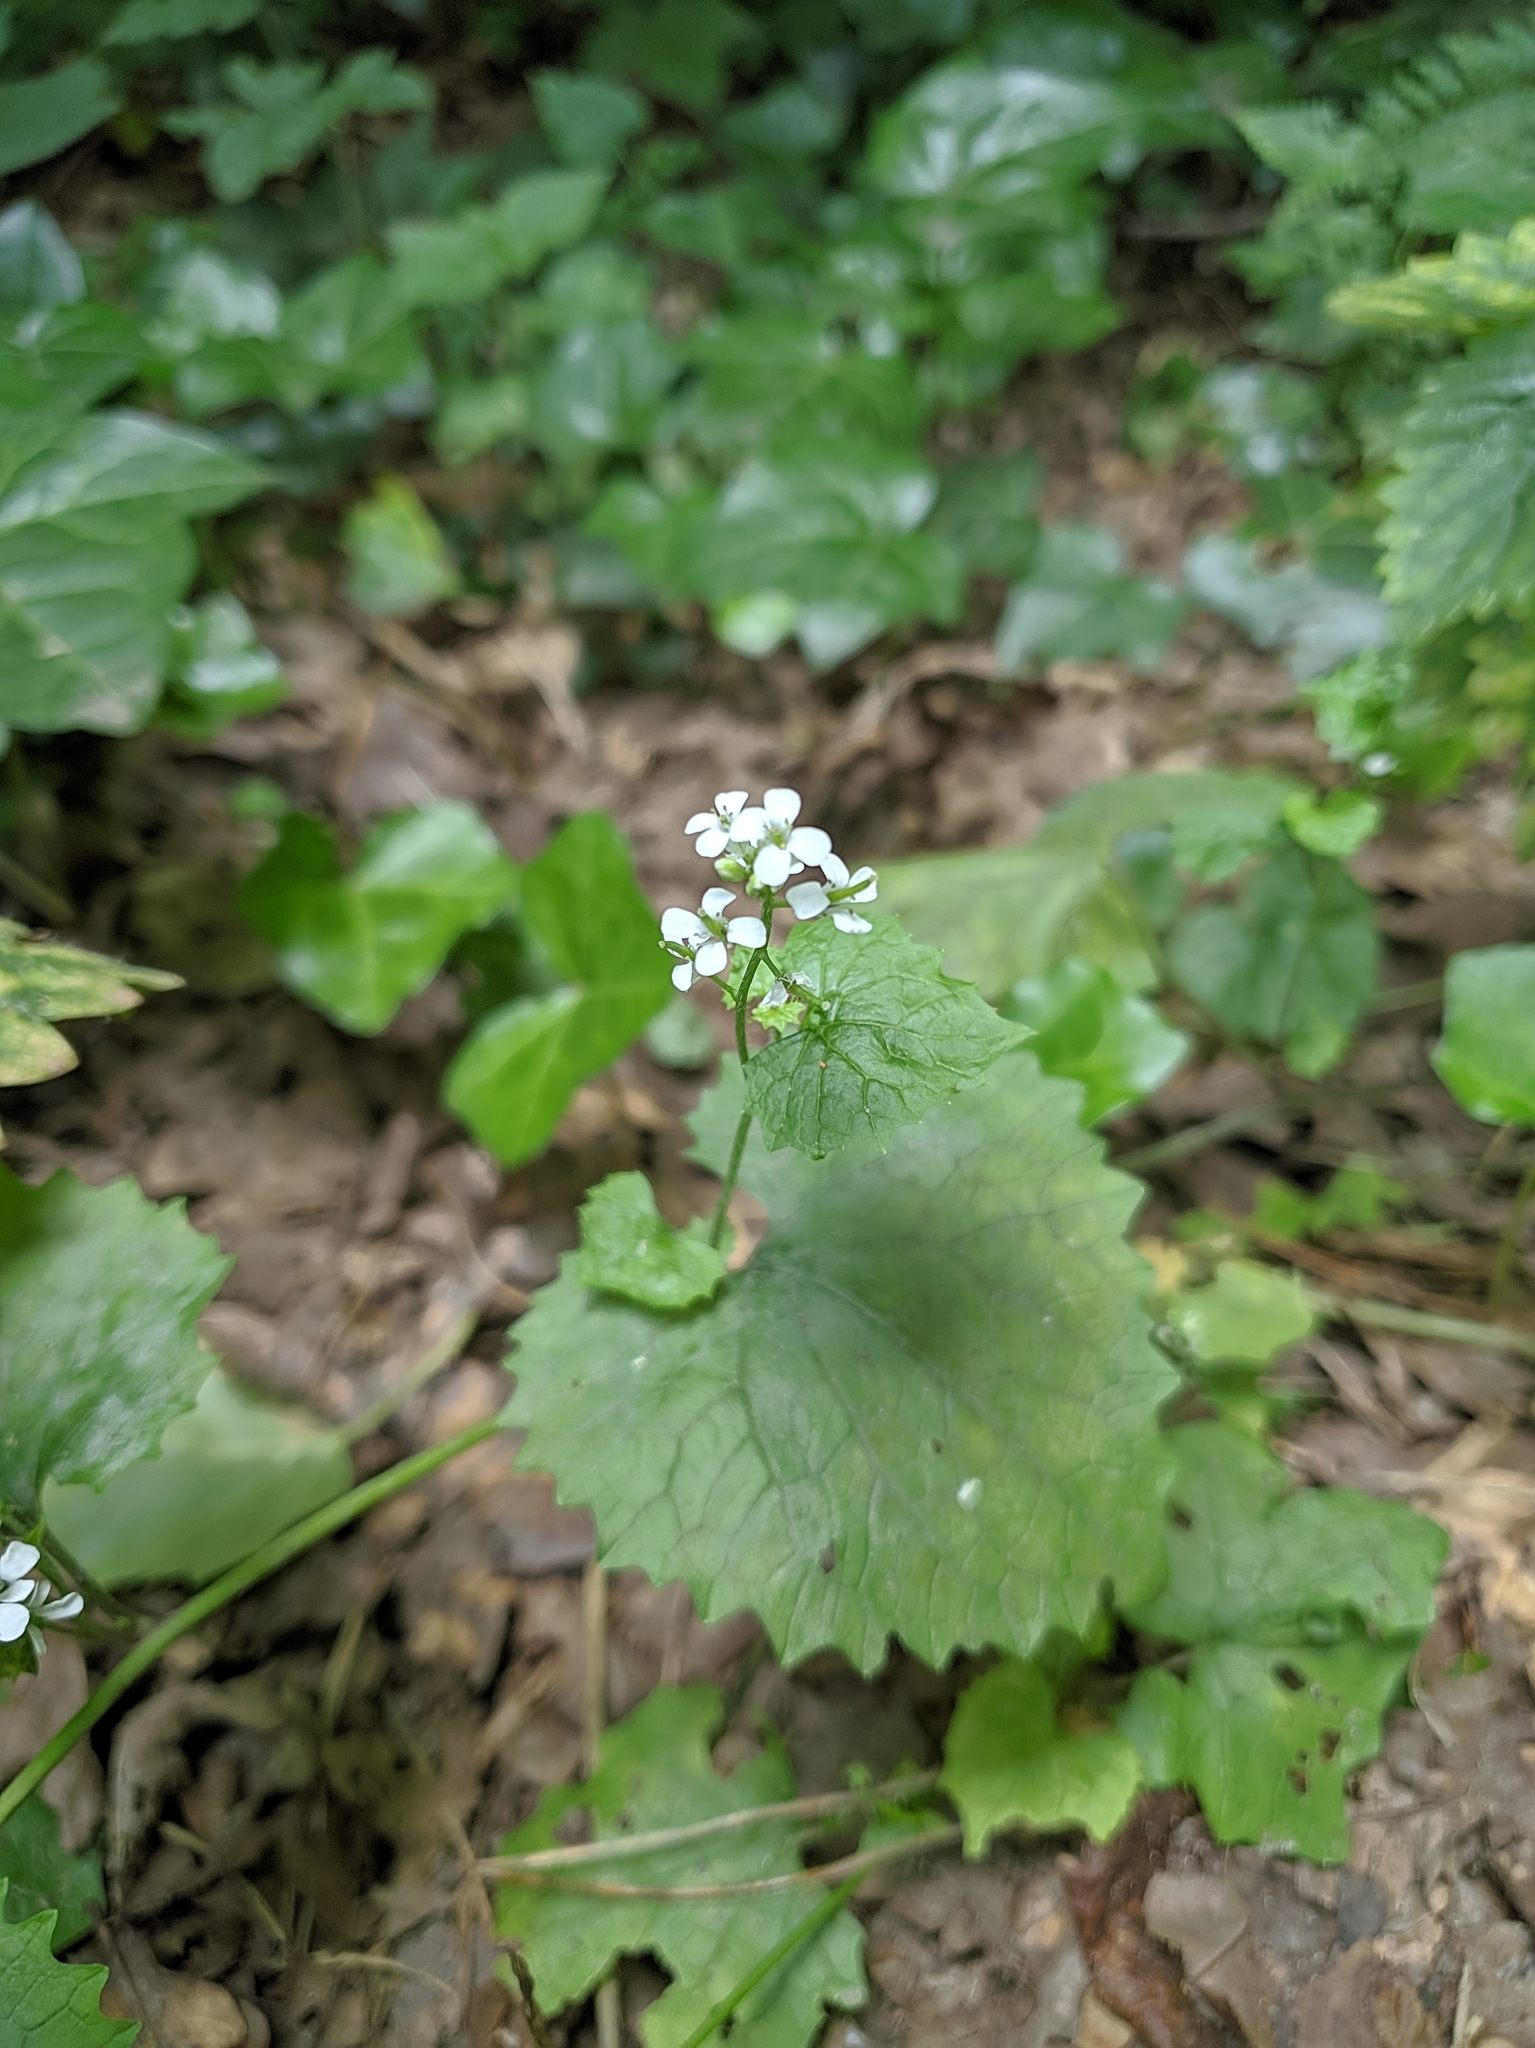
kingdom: Plantae
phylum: Tracheophyta
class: Magnoliopsida
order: Brassicales
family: Brassicaceae
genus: Alliaria
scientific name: Alliaria petiolata
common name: Garlic mustard
